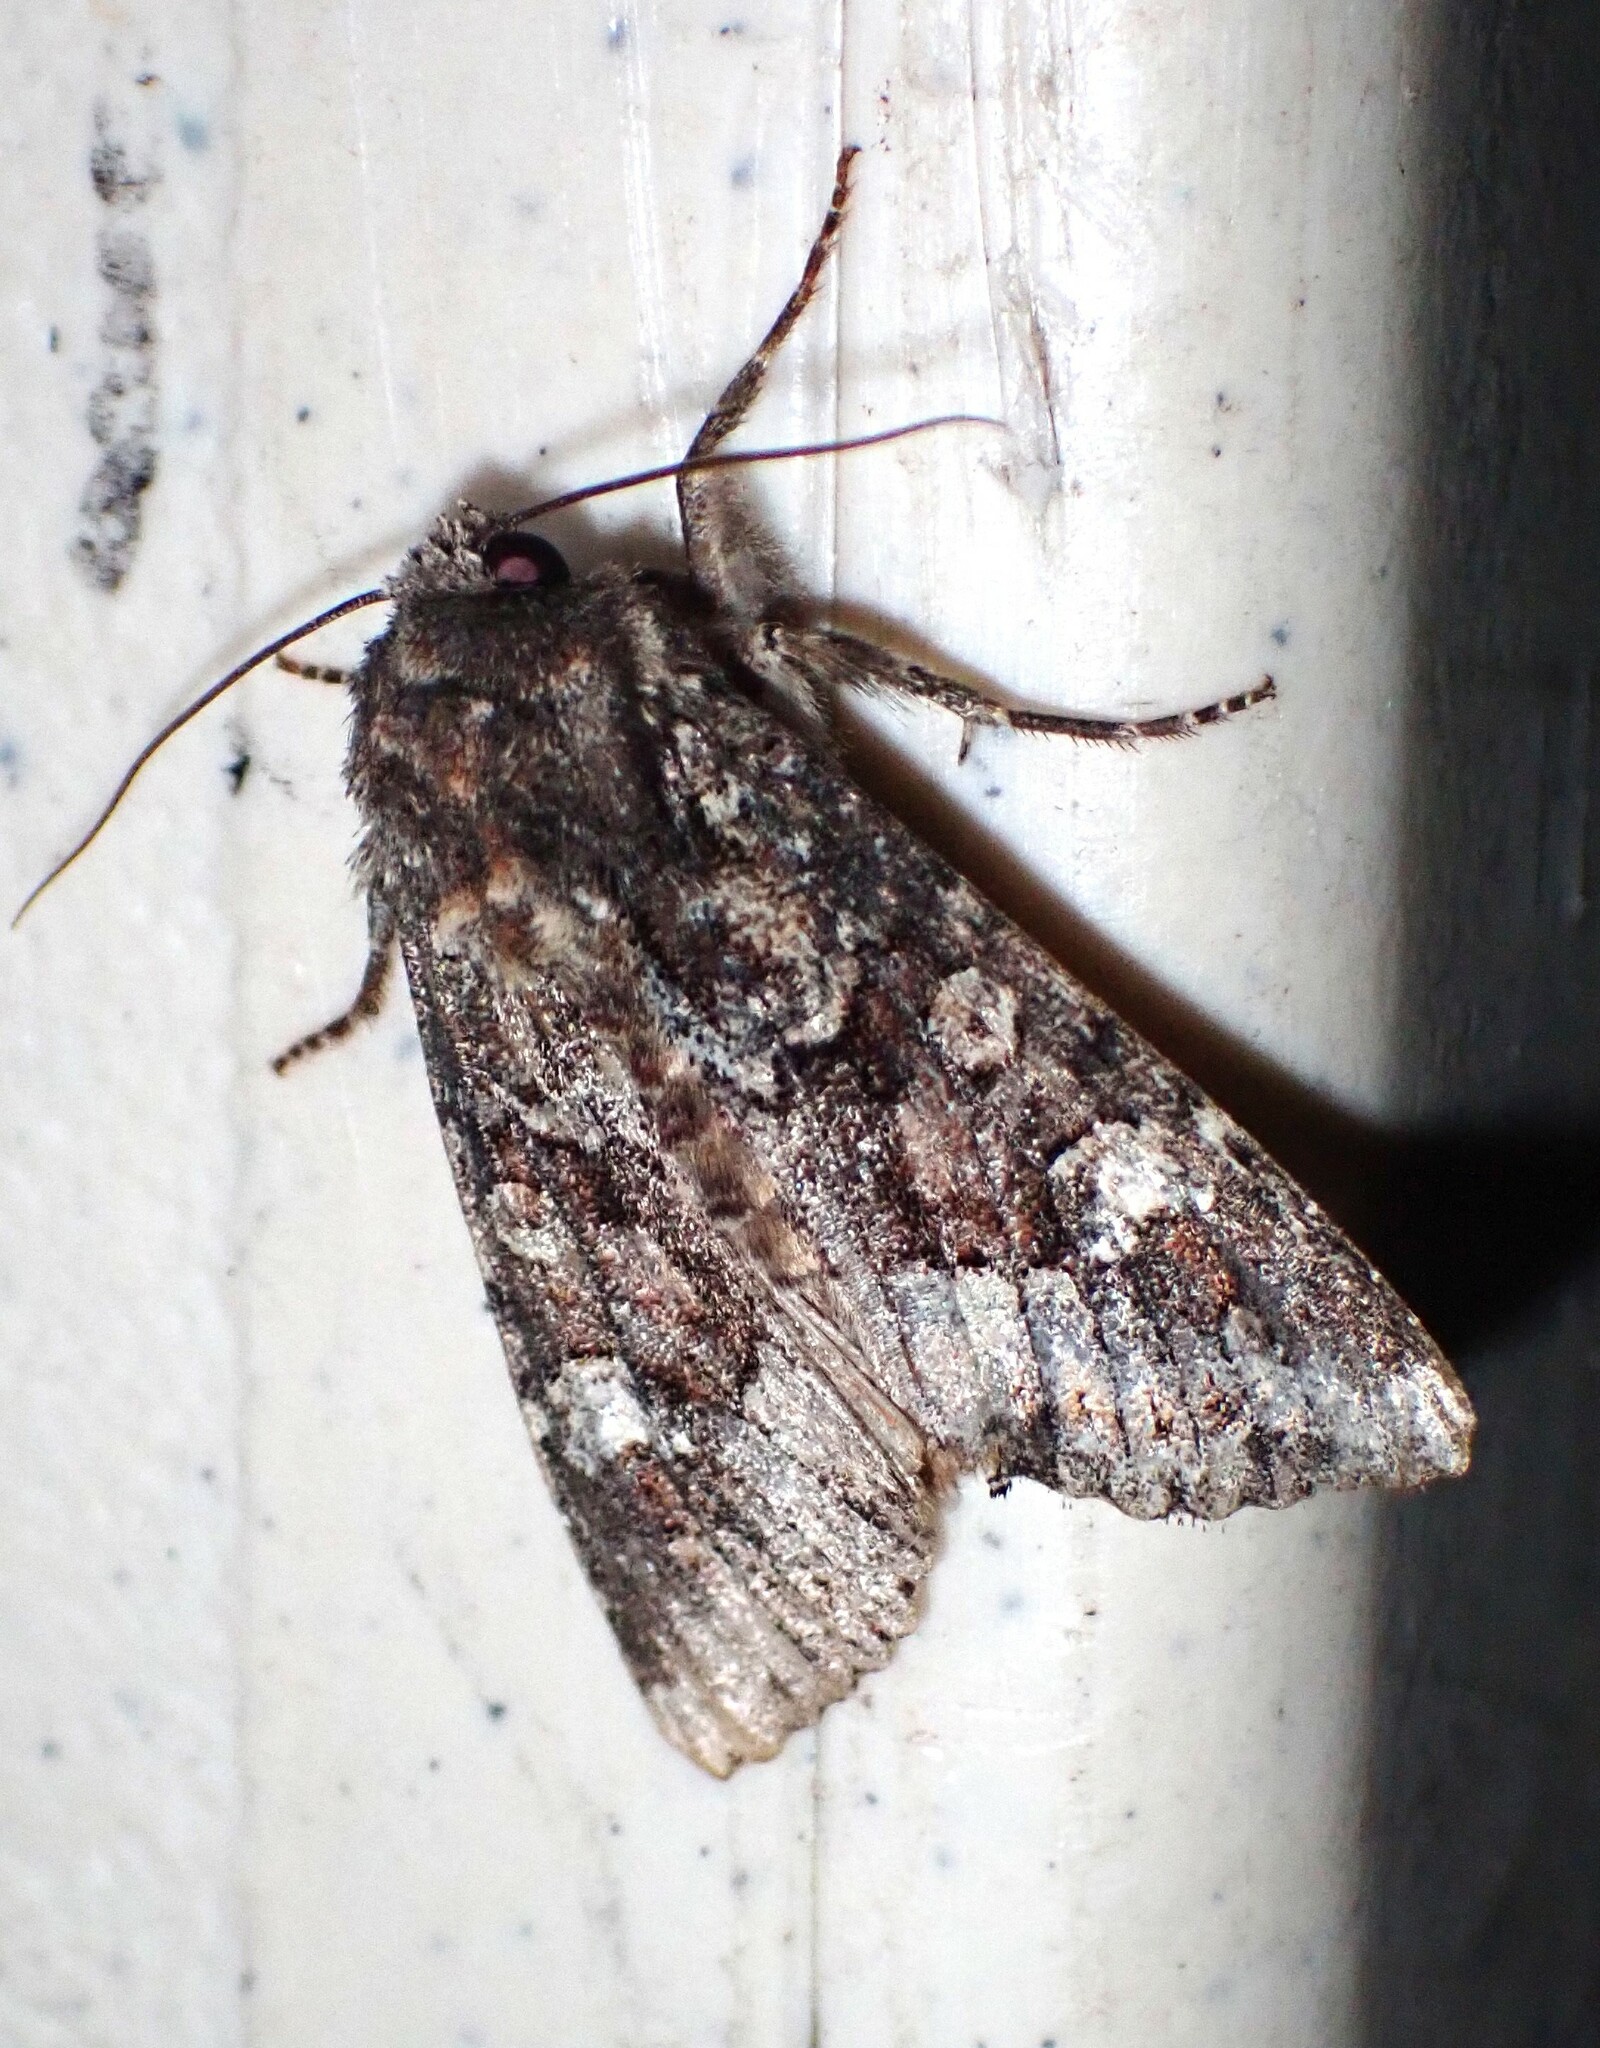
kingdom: Animalia
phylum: Arthropoda
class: Insecta
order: Lepidoptera
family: Noctuidae
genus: Apamea
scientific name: Apamea amputatrix
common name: Yellow-headed cutworm moth
